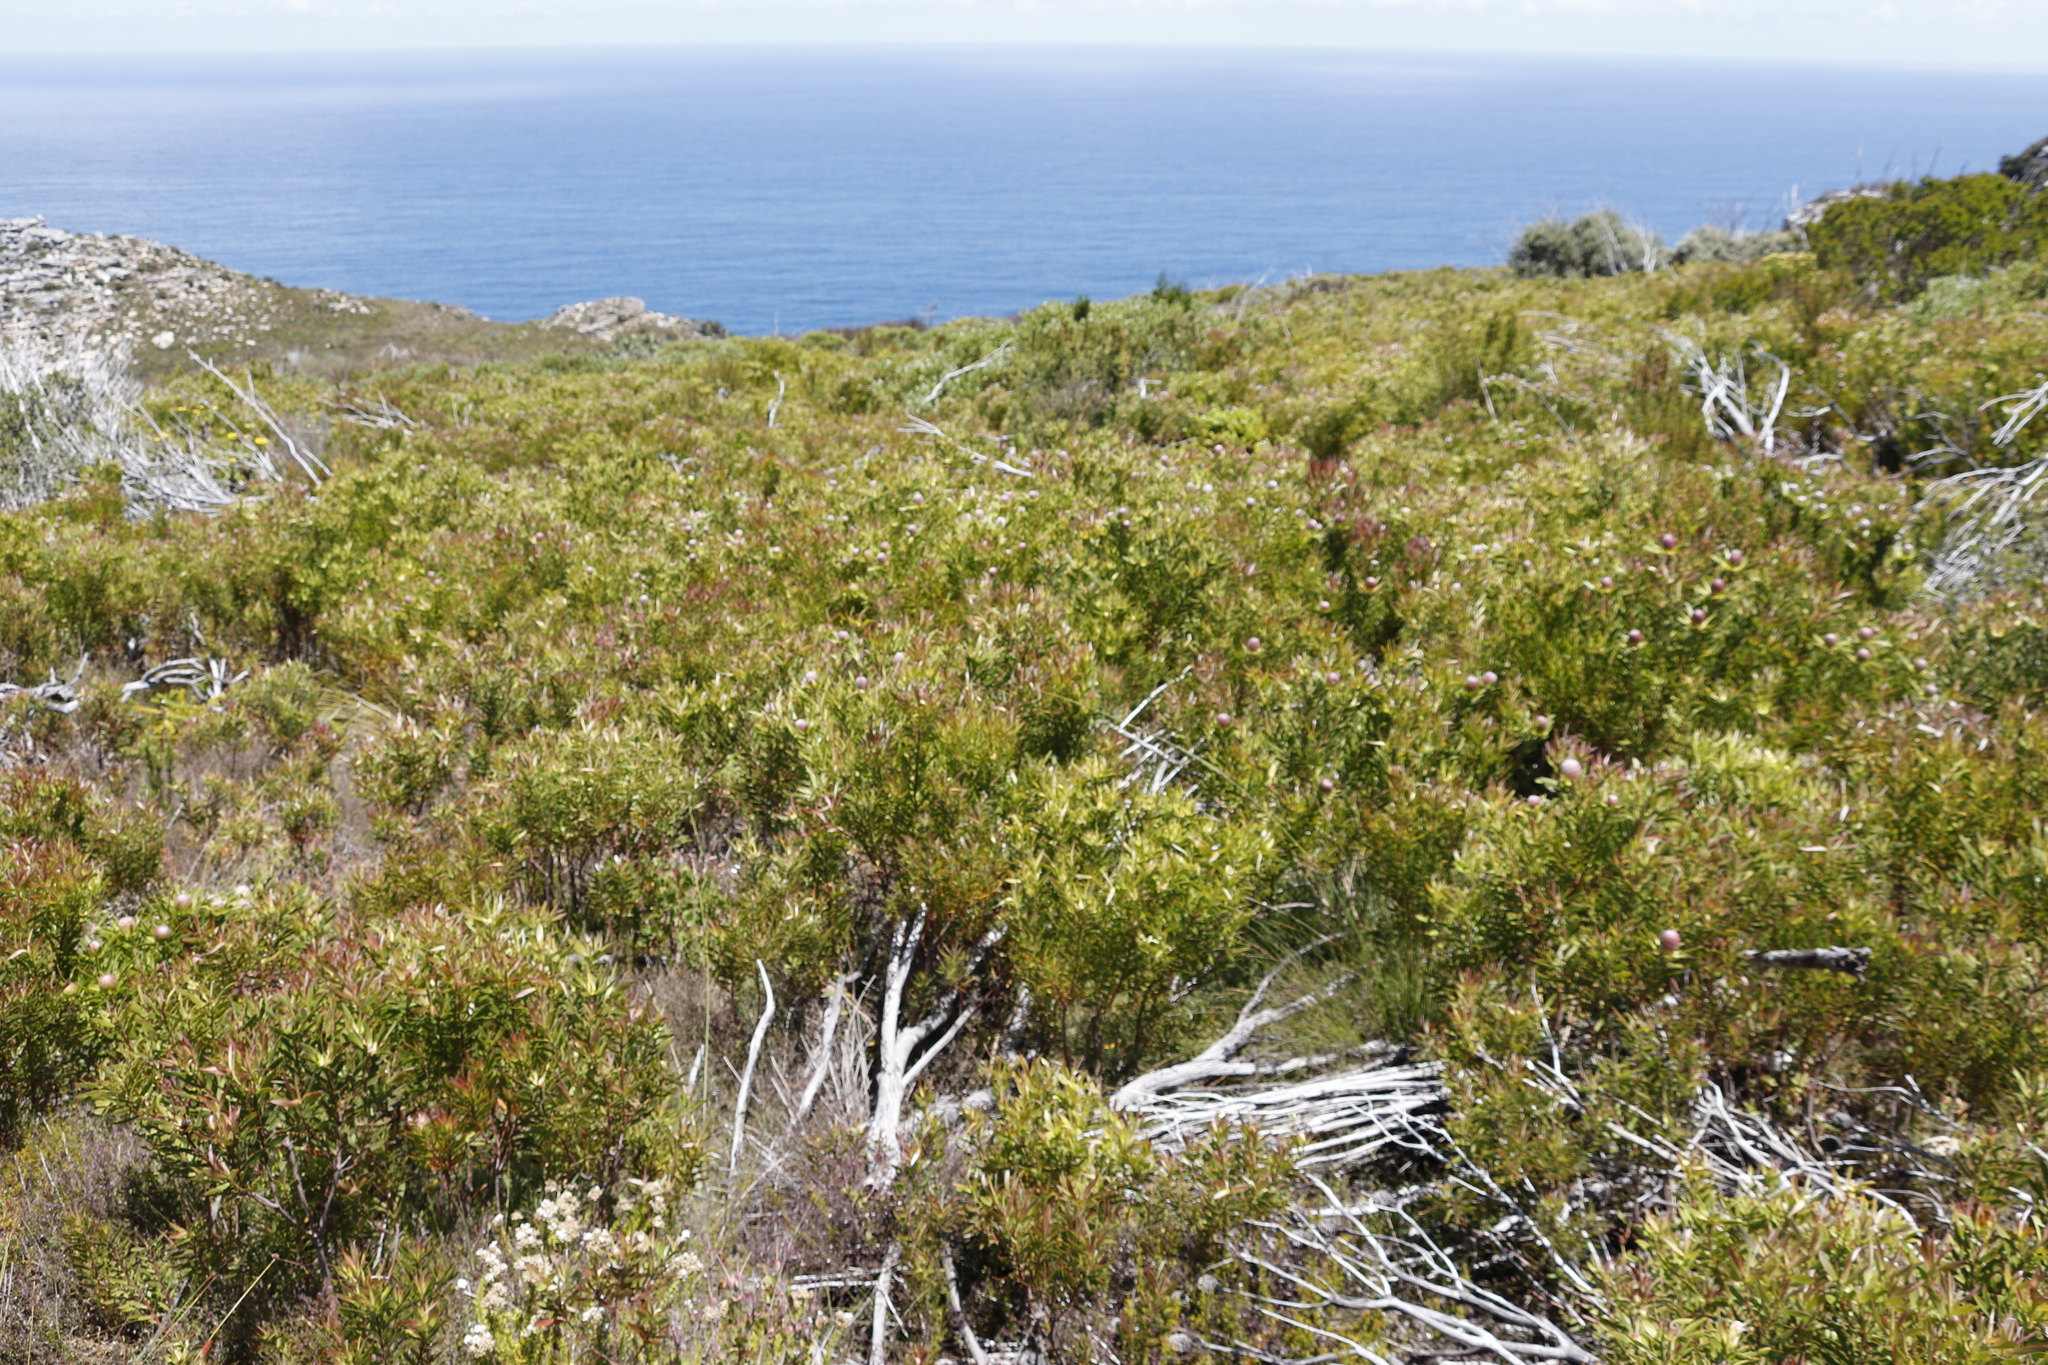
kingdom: Plantae
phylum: Tracheophyta
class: Magnoliopsida
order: Proteales
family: Proteaceae
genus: Leucadendron
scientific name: Leucadendron xanthoconus
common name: Sickle-leaf conebush
